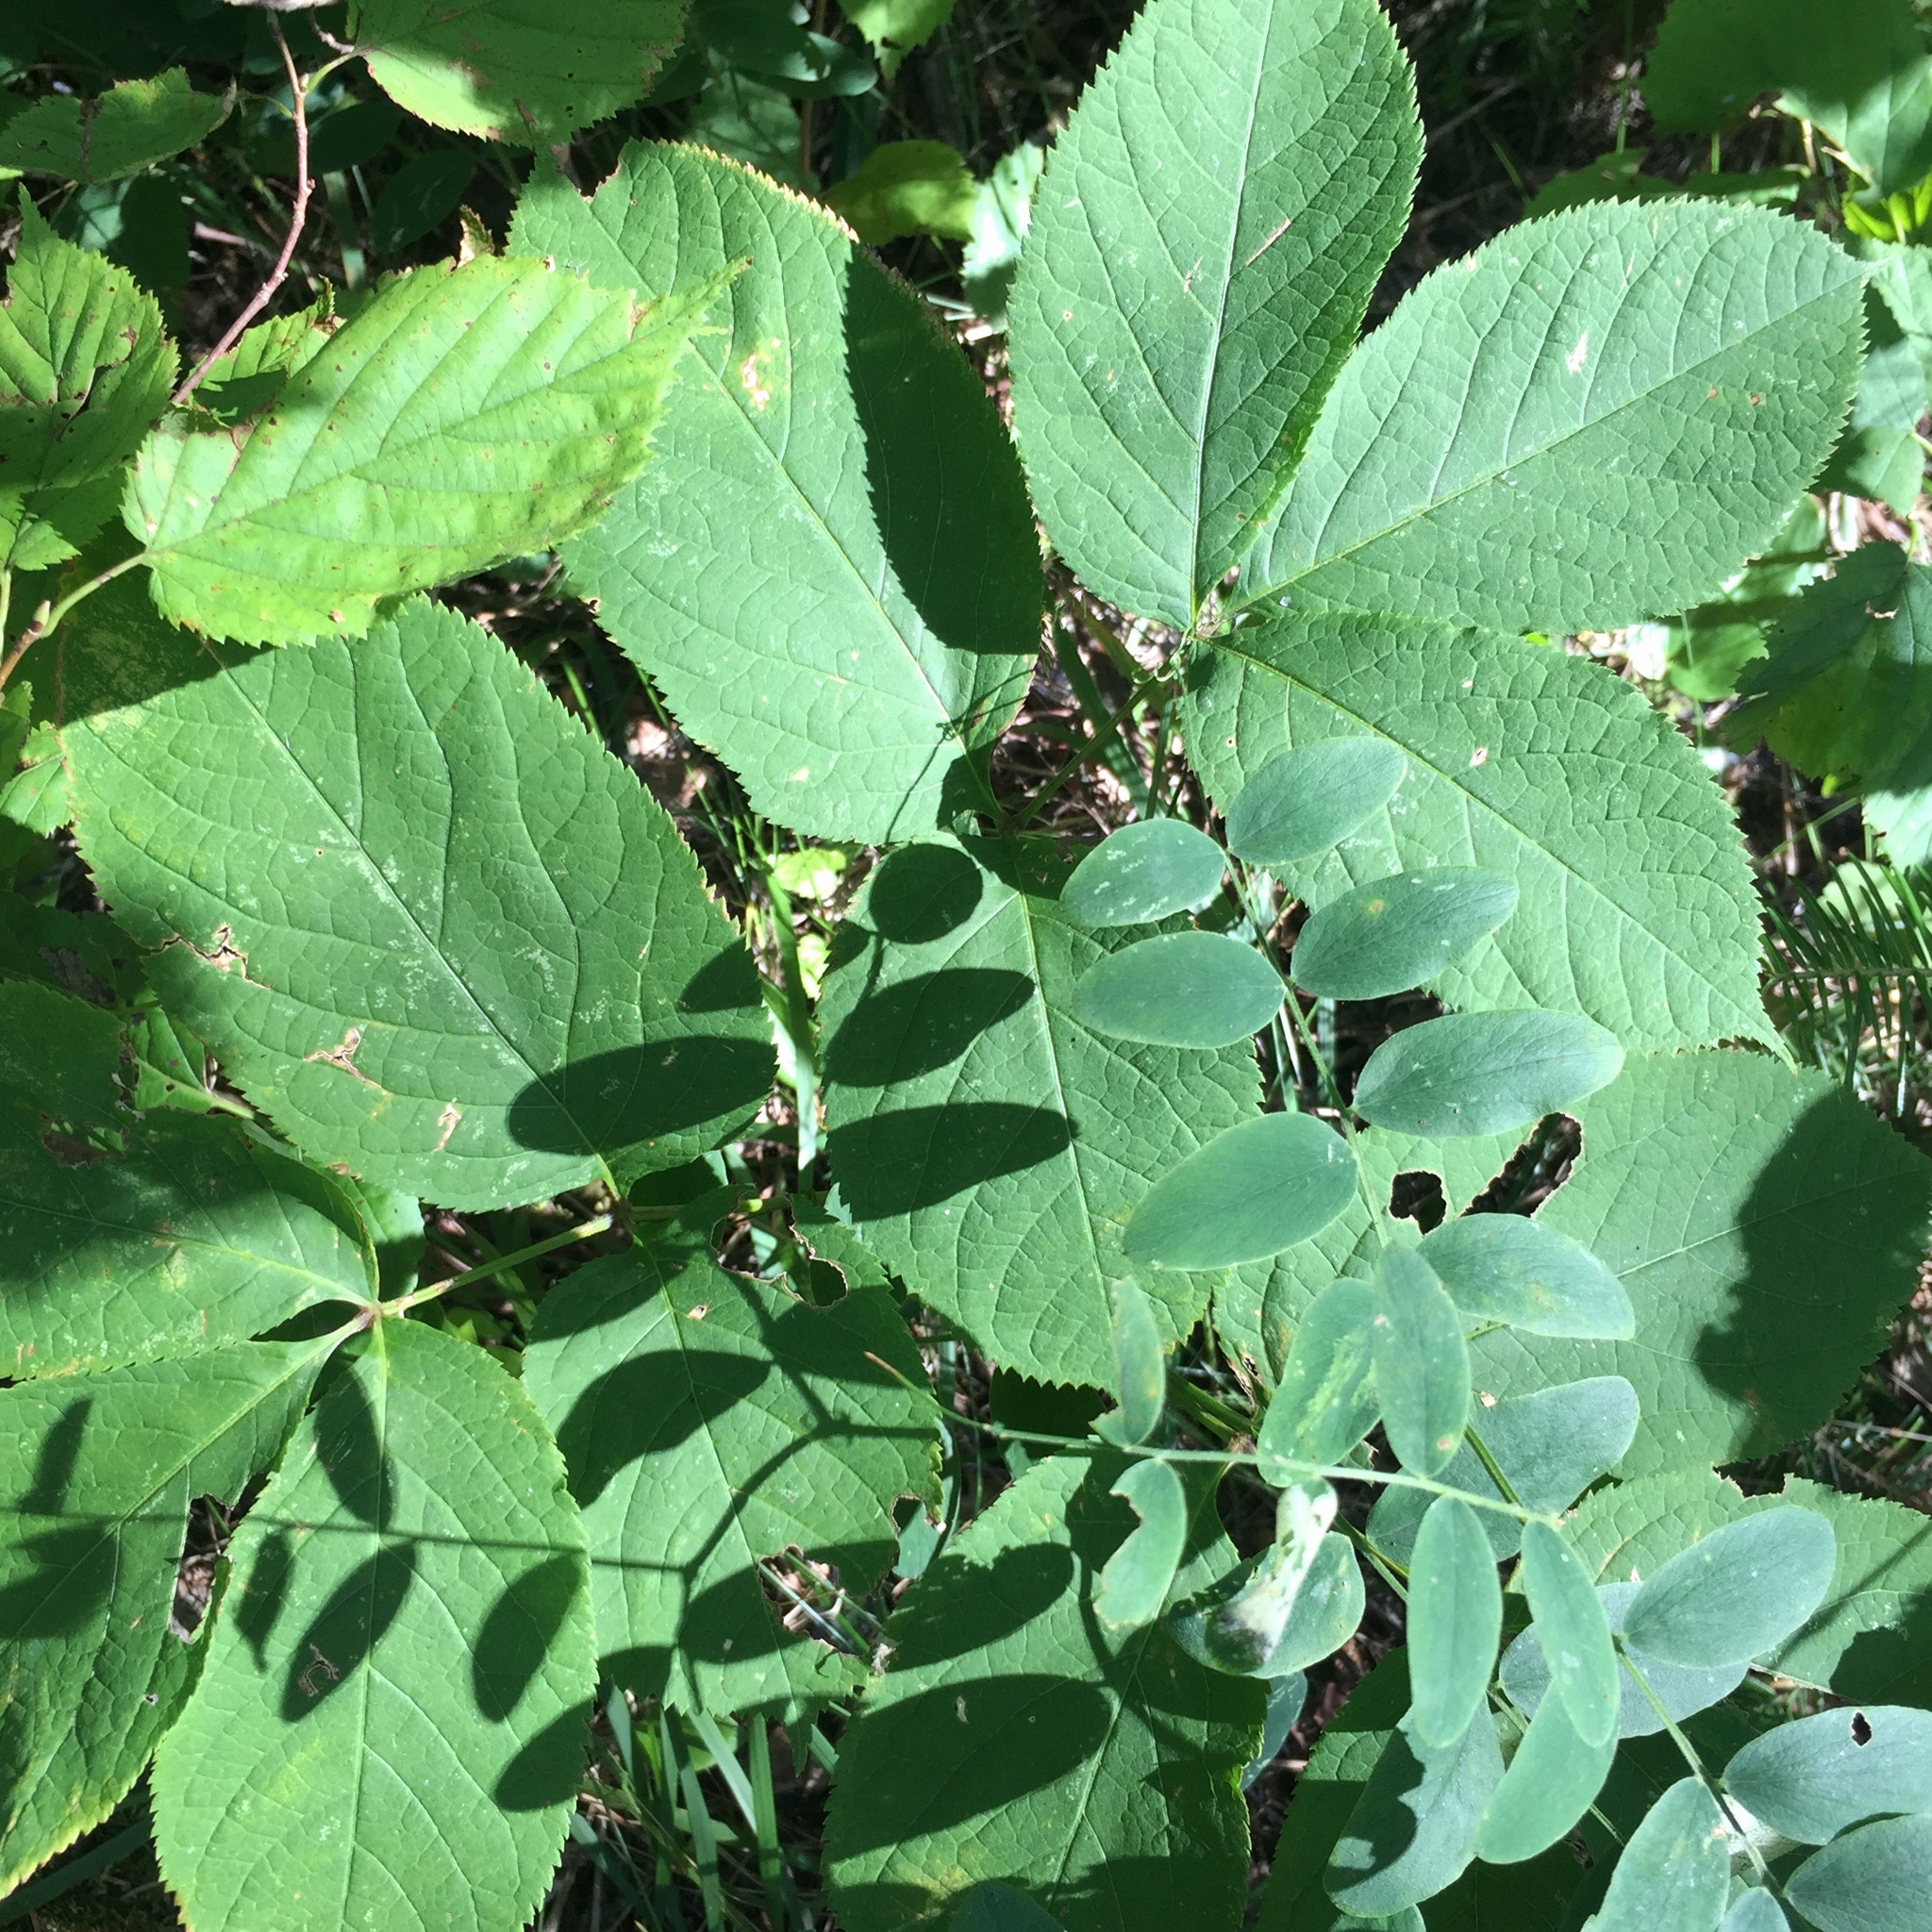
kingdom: Plantae
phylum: Tracheophyta
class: Magnoliopsida
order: Apiales
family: Araliaceae
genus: Aralia
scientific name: Aralia nudicaulis
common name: Wild sarsaparilla
